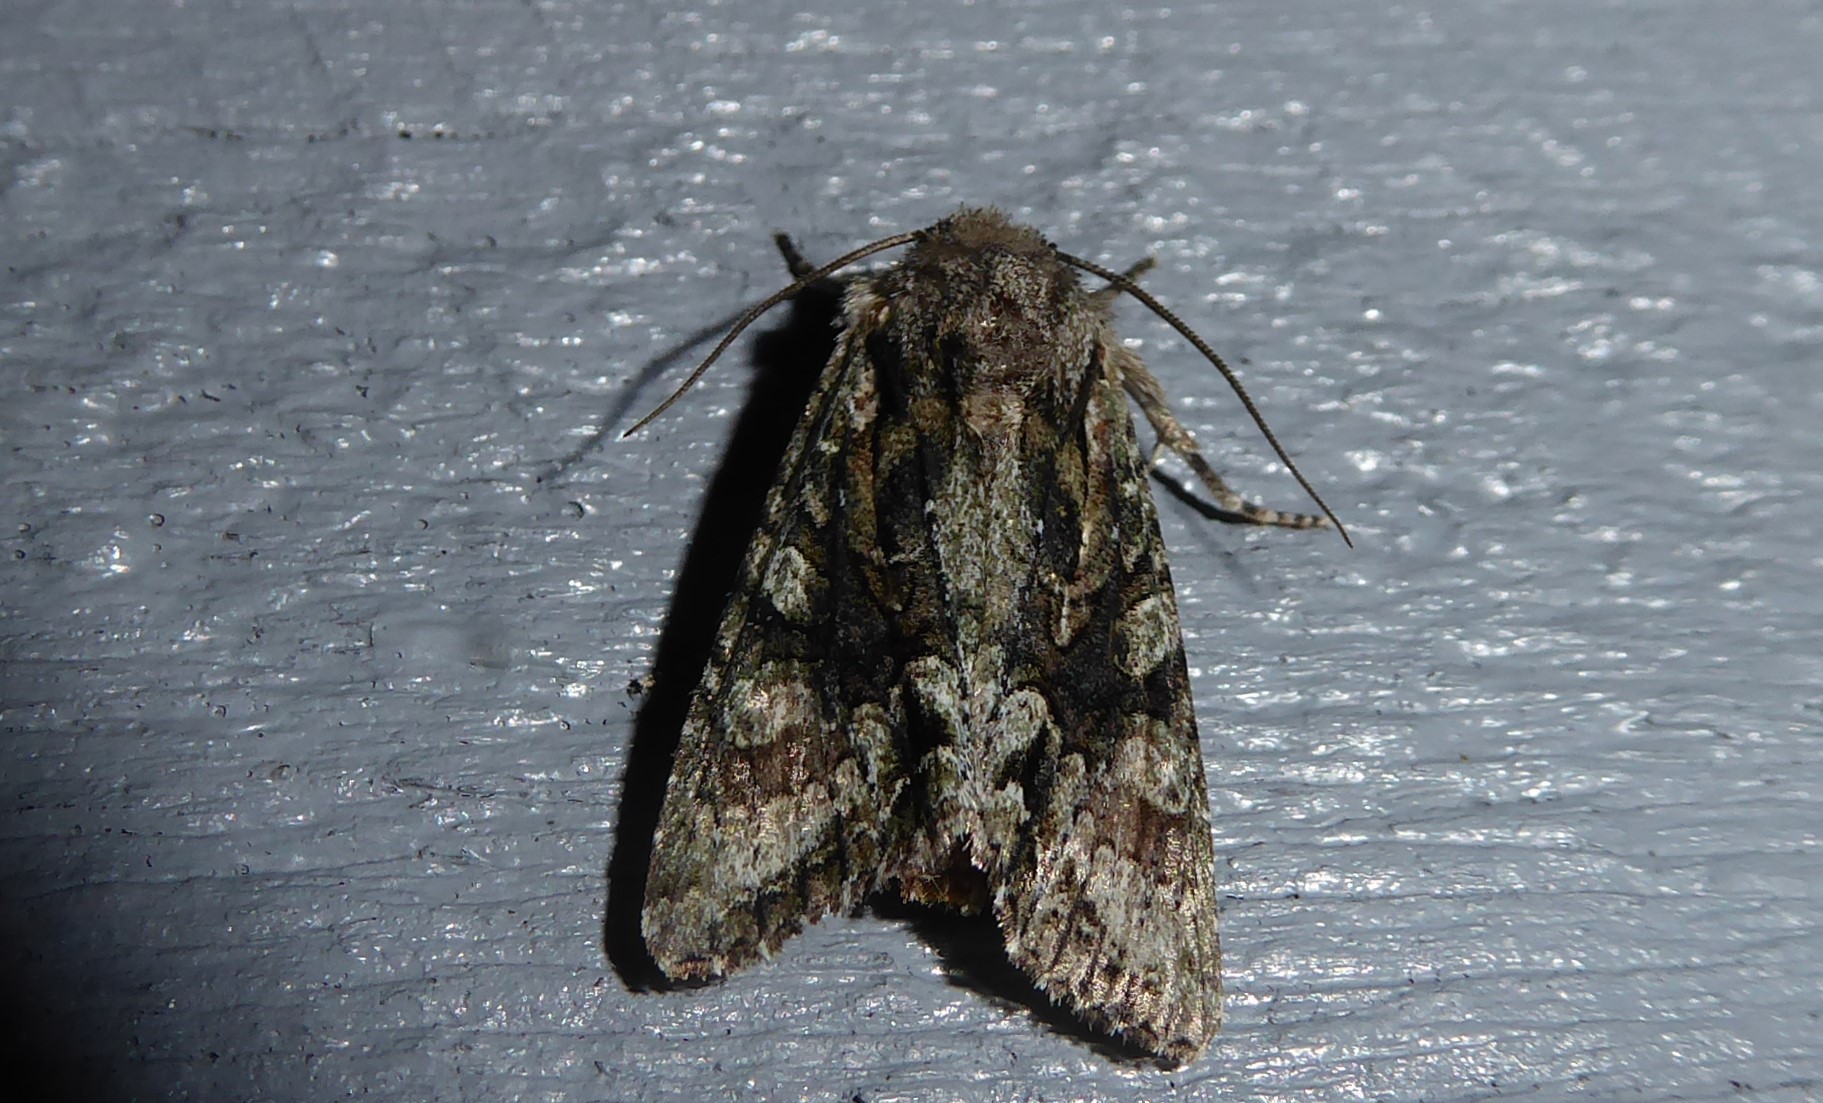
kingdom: Animalia
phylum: Arthropoda
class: Insecta
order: Lepidoptera
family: Noctuidae
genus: Ichneutica
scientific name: Ichneutica mutans
